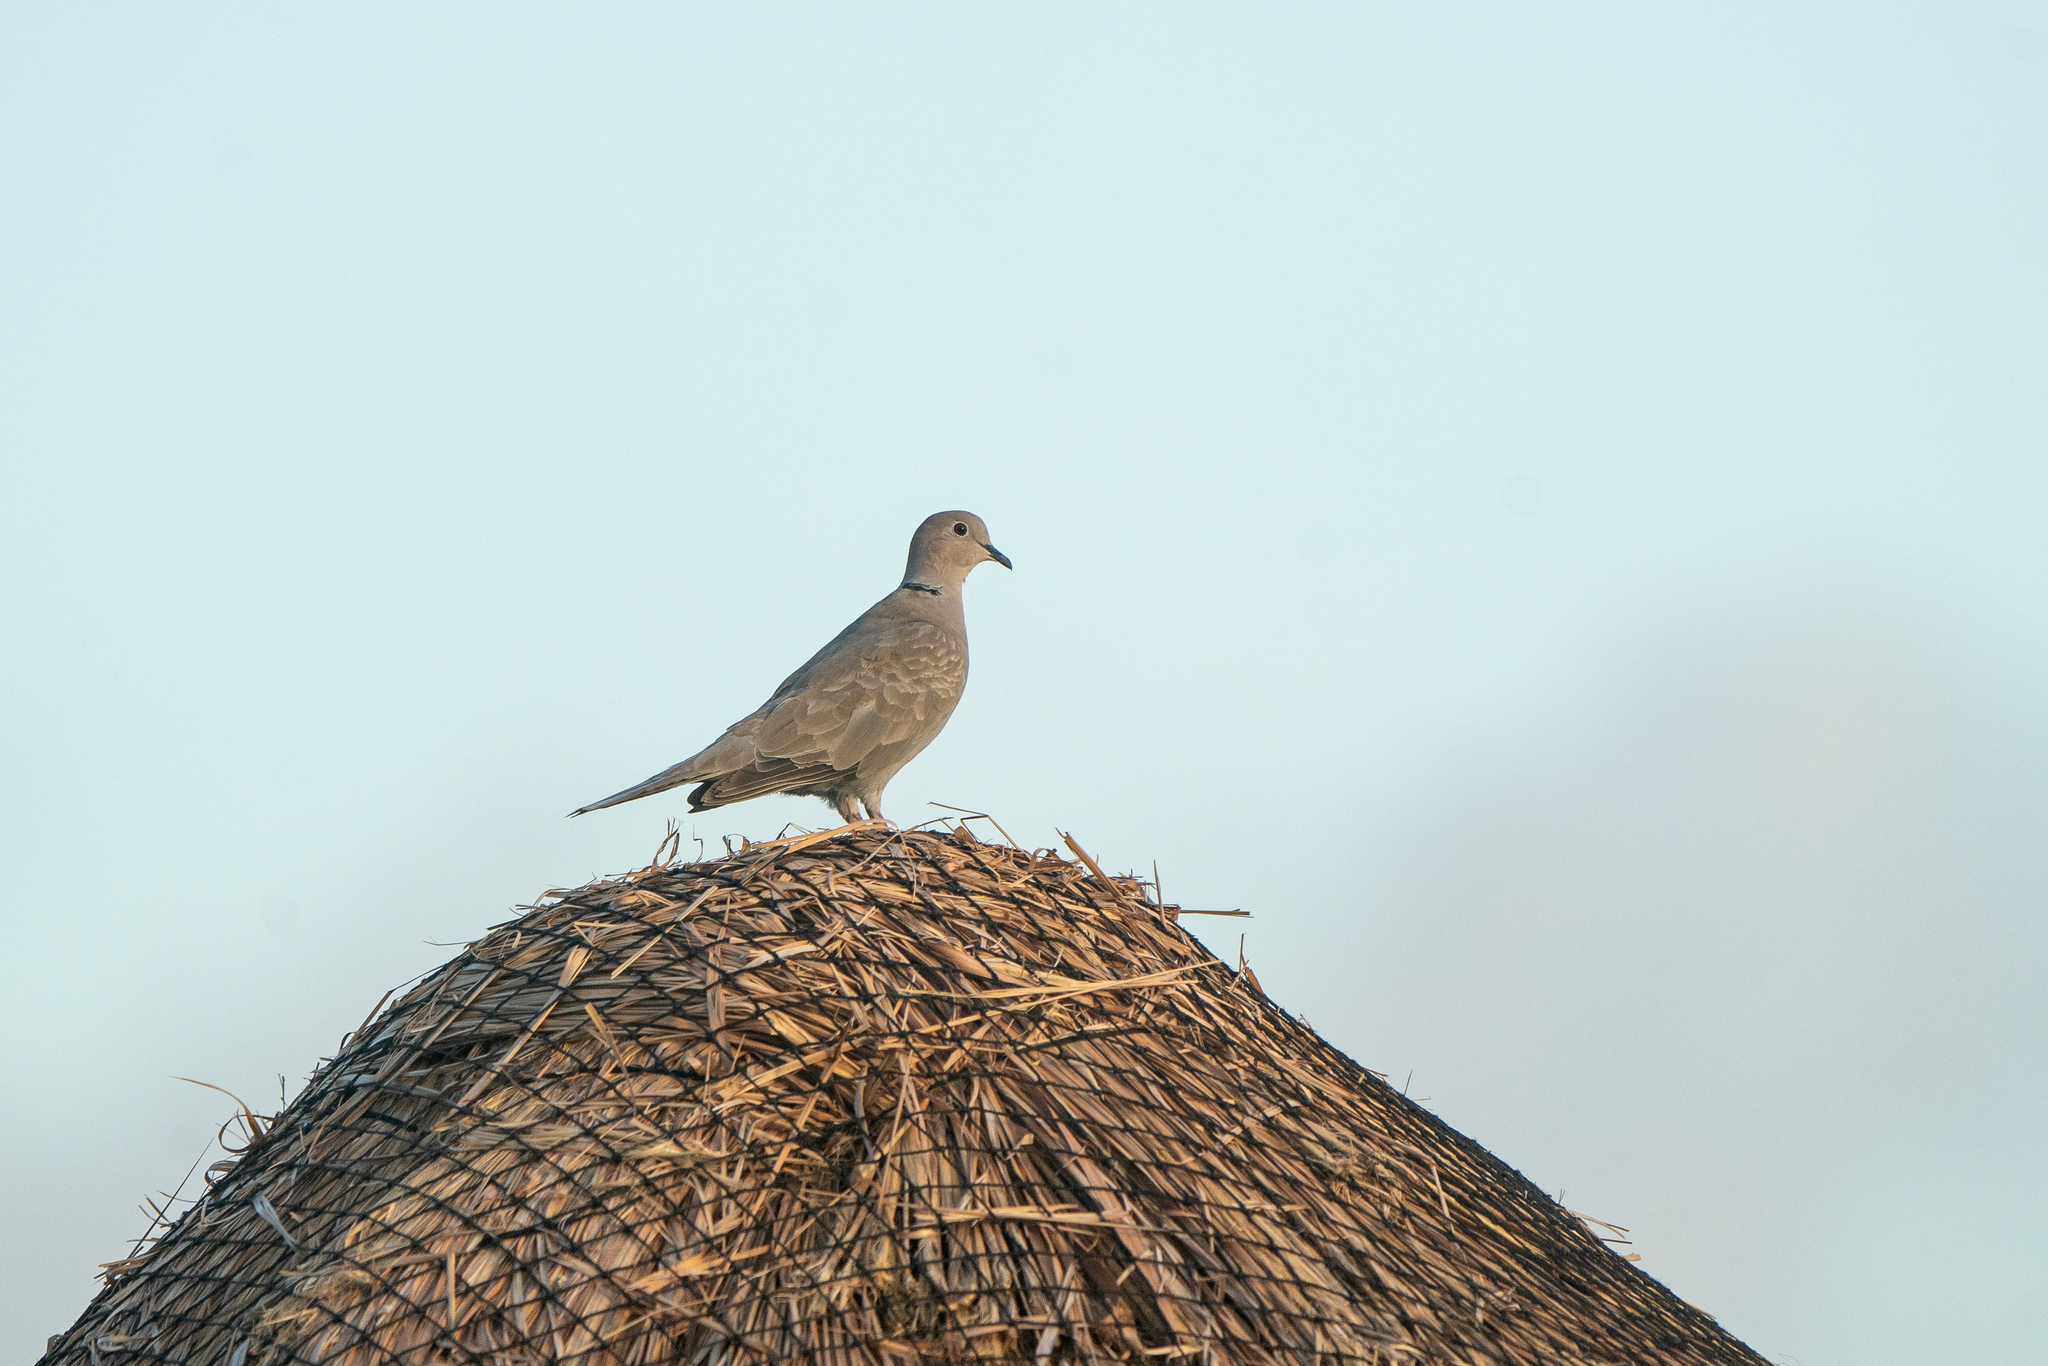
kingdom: Animalia
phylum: Chordata
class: Aves
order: Columbiformes
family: Columbidae
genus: Streptopelia
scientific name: Streptopelia decaocto
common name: Eurasian collared dove
